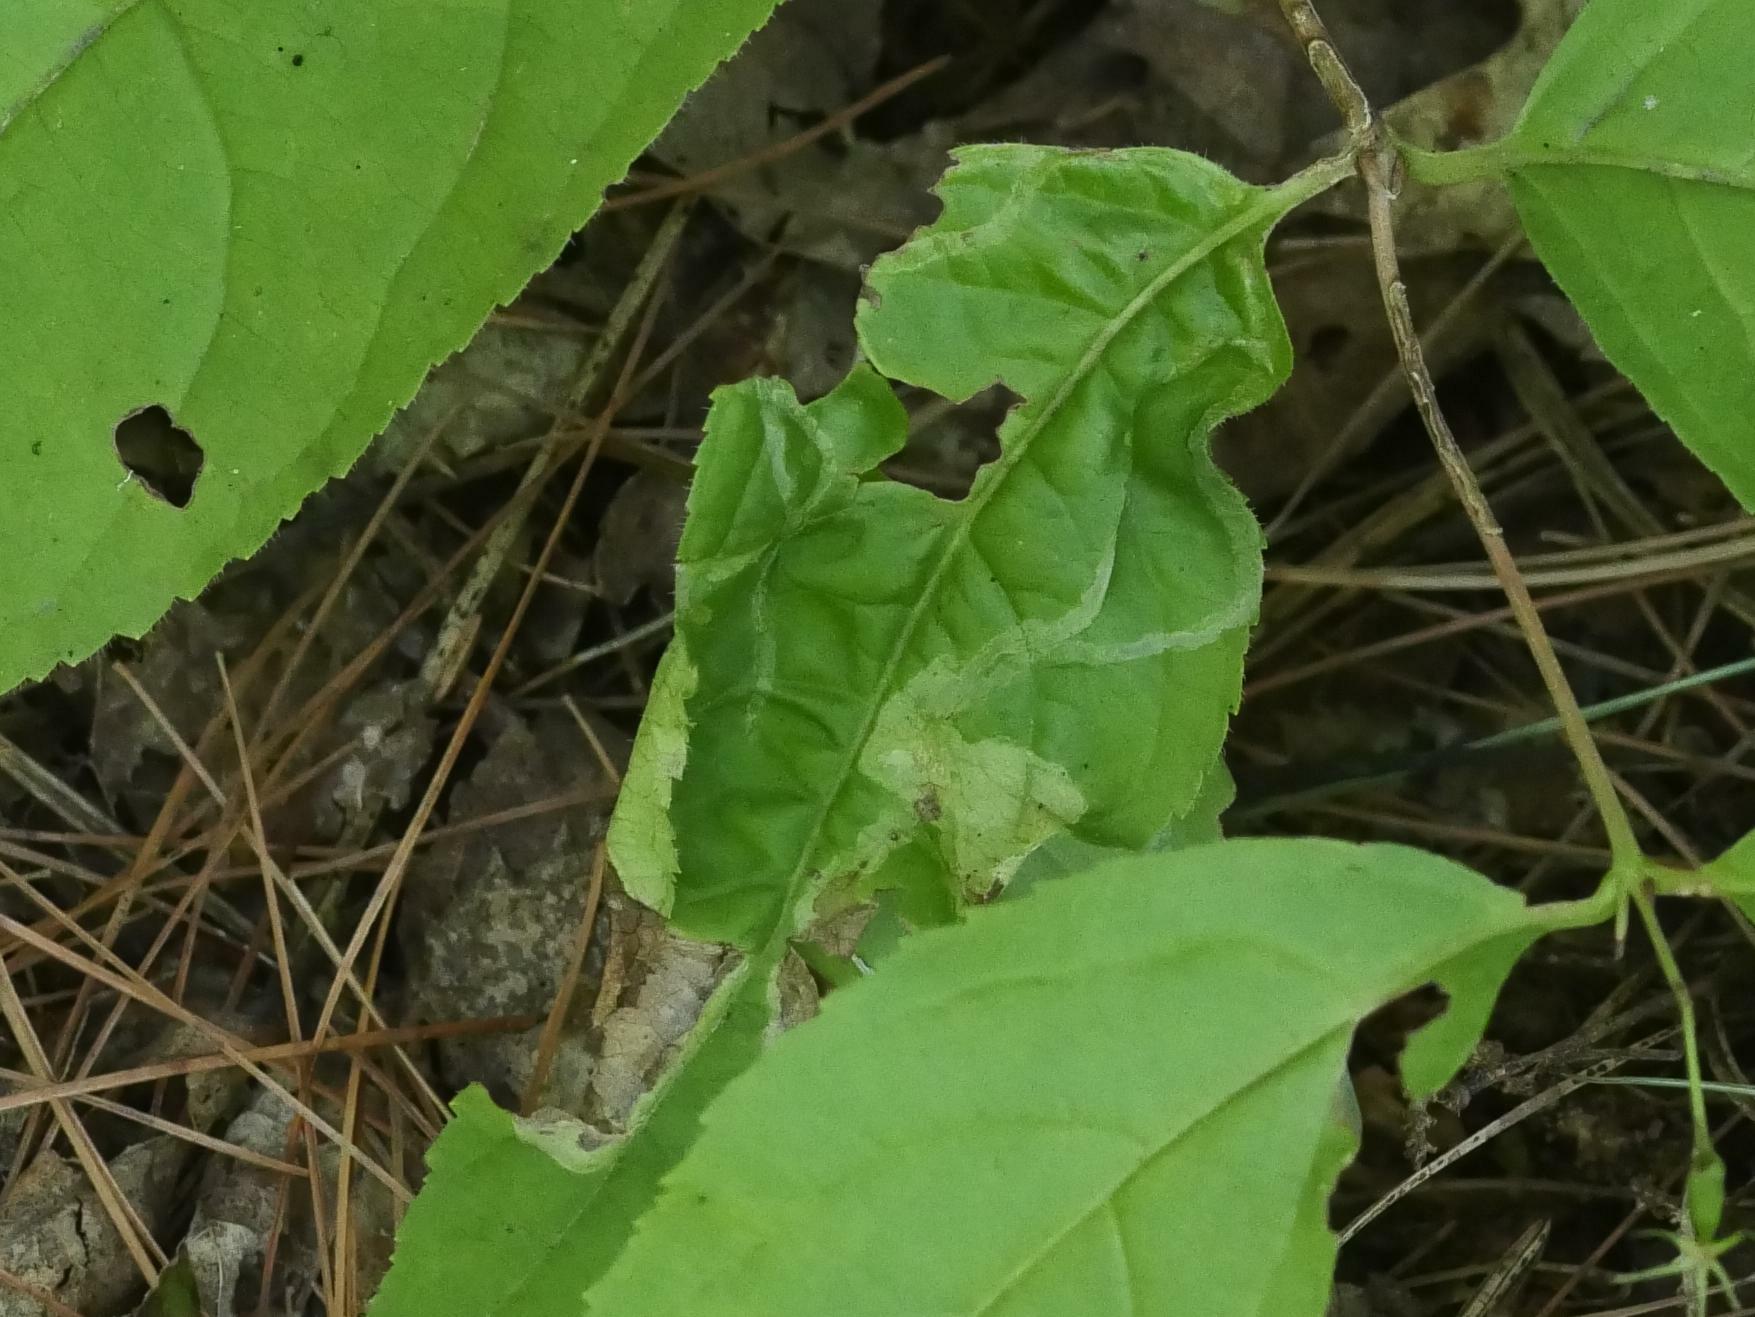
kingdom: Animalia
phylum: Arthropoda
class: Insecta
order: Diptera
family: Agromyzidae
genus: Aulagromyza
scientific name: Aulagromyza orbitalis
